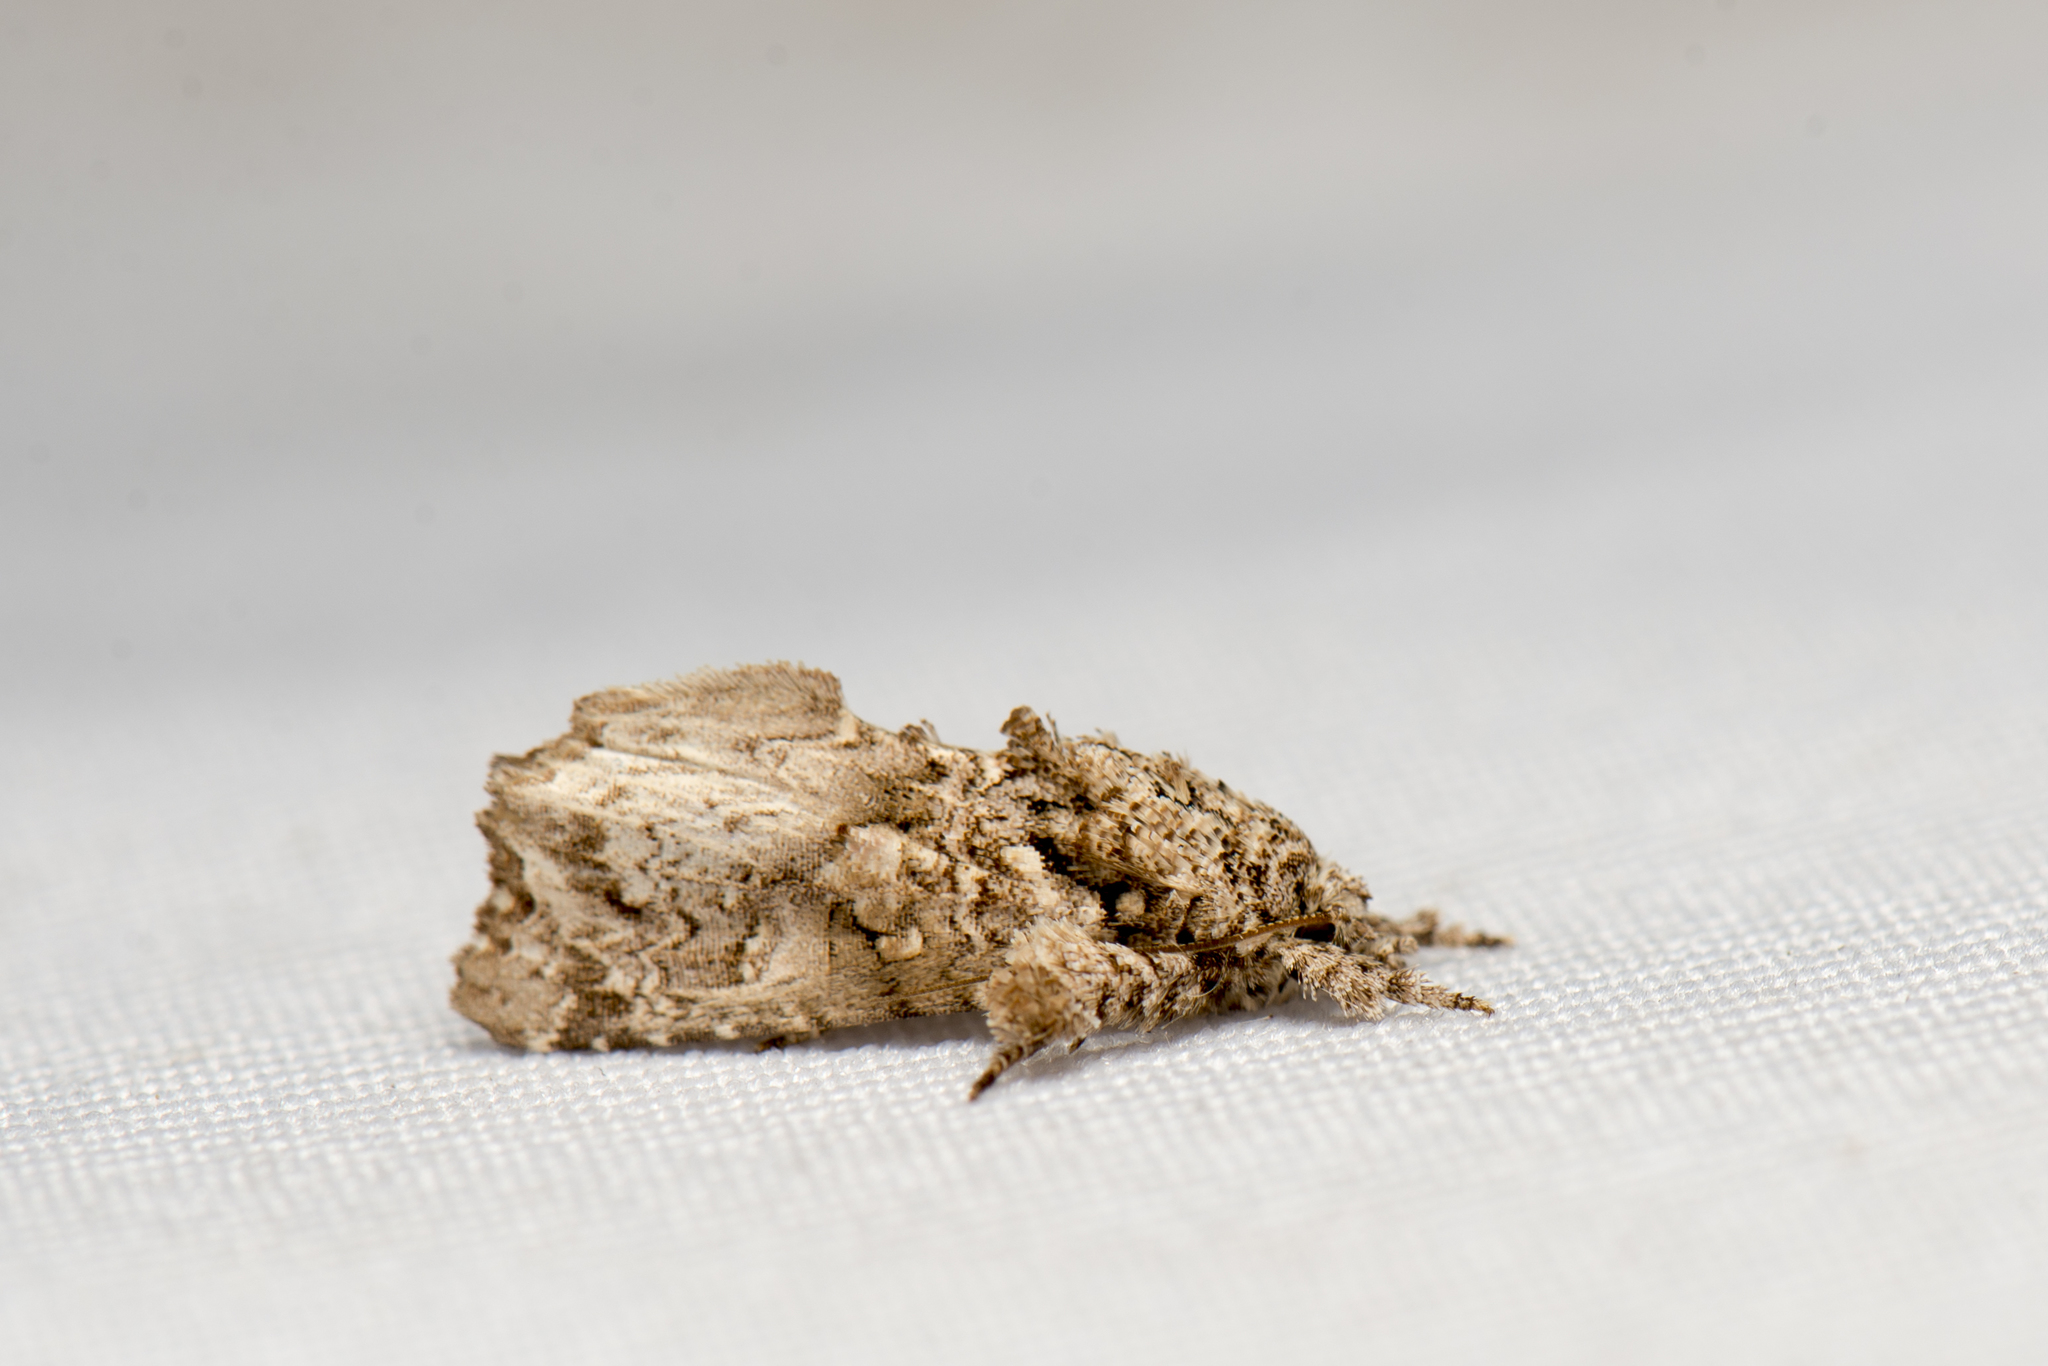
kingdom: Animalia
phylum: Arthropoda
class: Insecta
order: Lepidoptera
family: Noctuidae
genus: Callopistria
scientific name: Callopistria guttulalis
